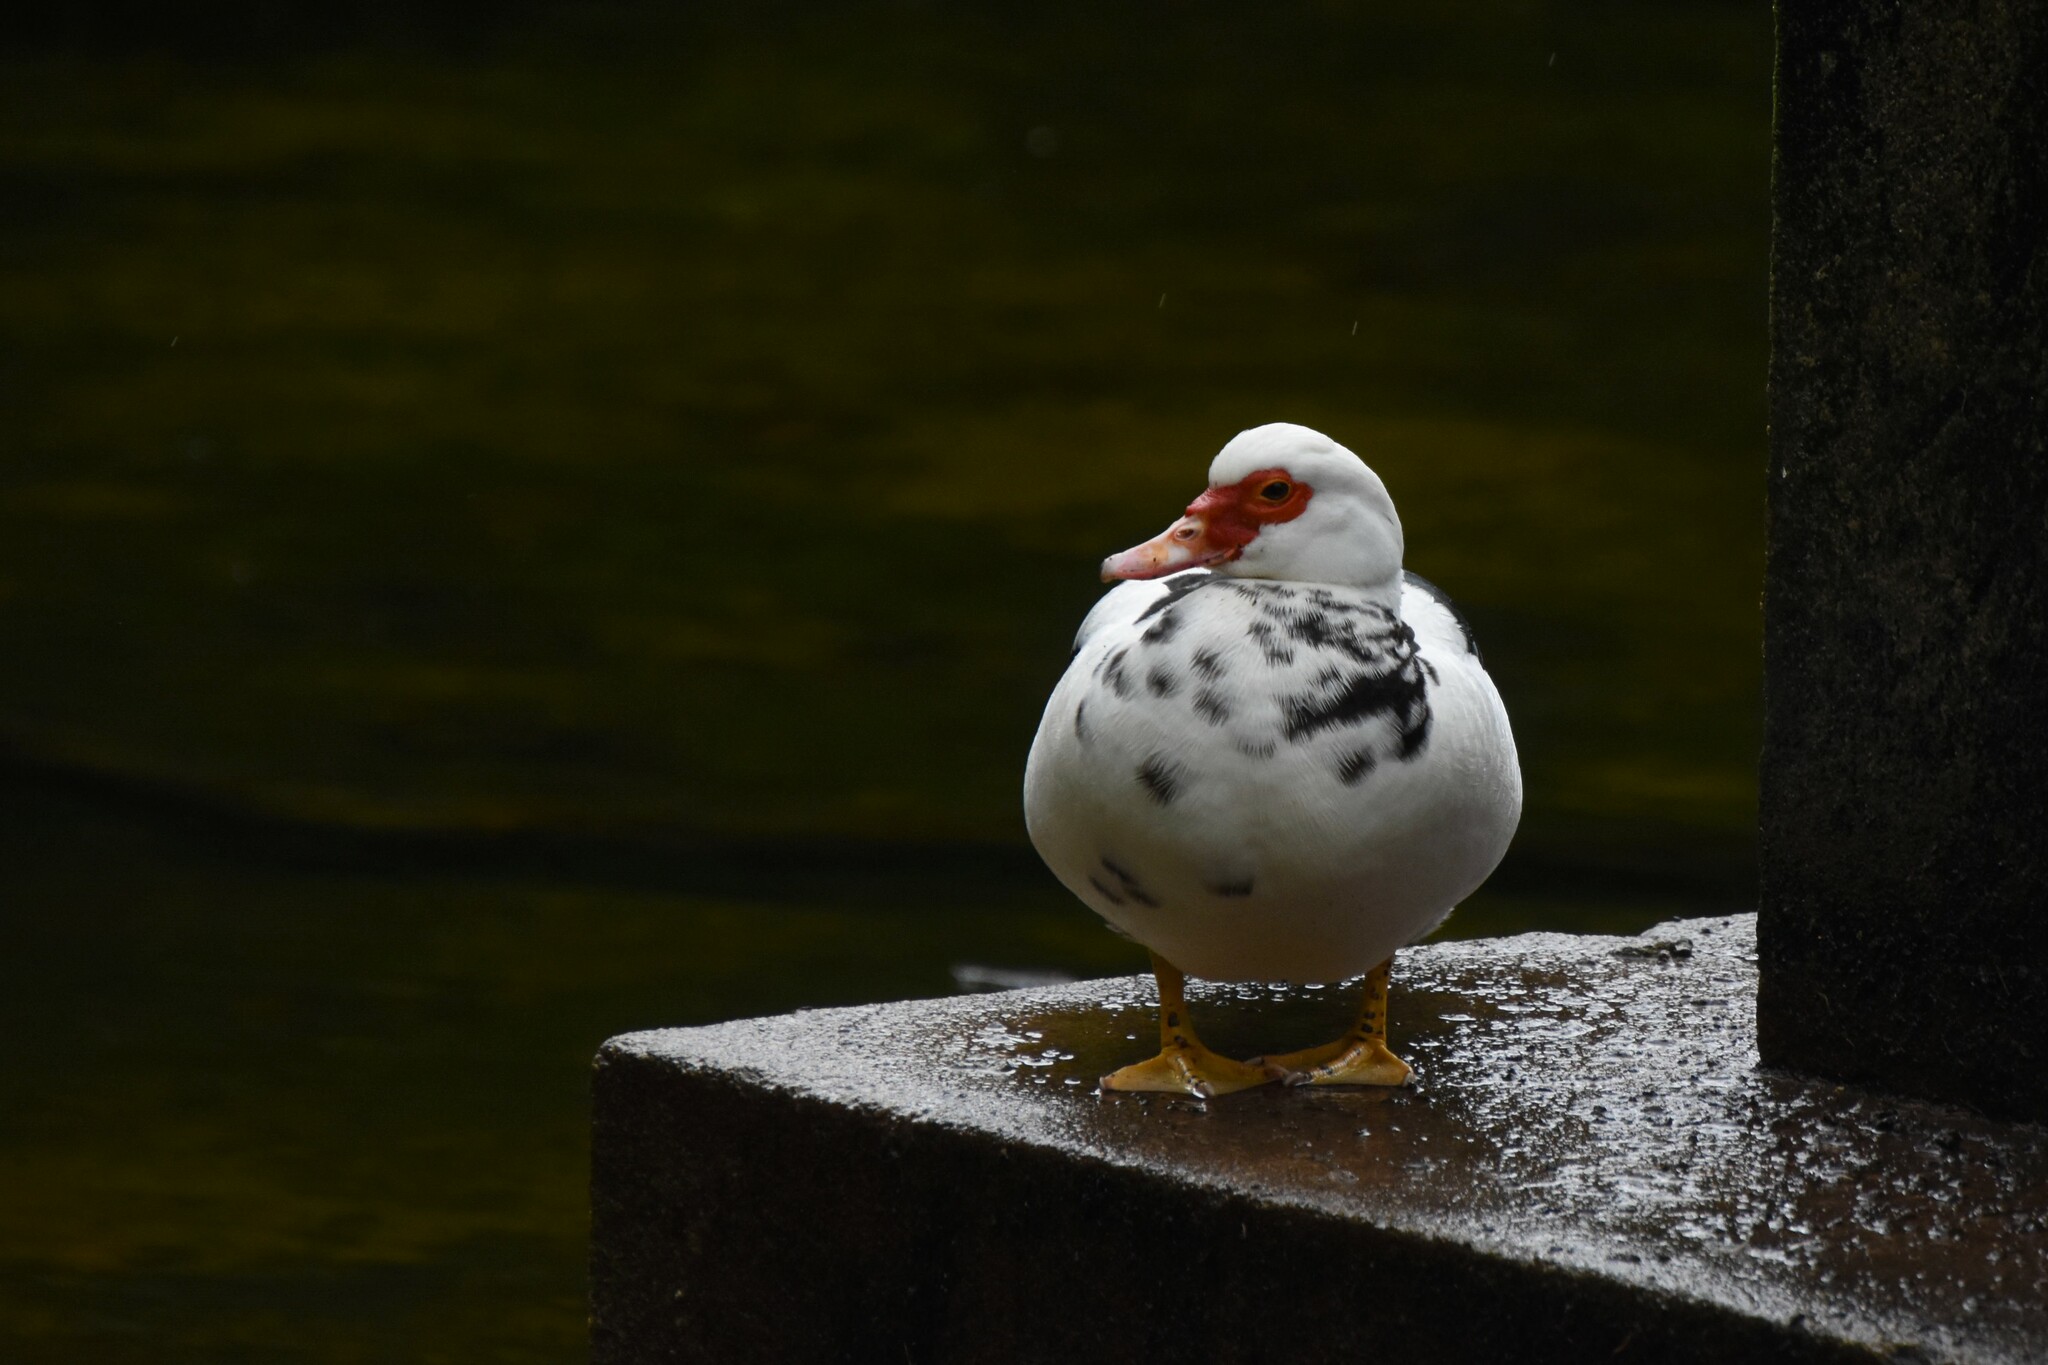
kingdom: Animalia
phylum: Chordata
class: Aves
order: Anseriformes
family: Anatidae
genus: Cairina
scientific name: Cairina moschata
